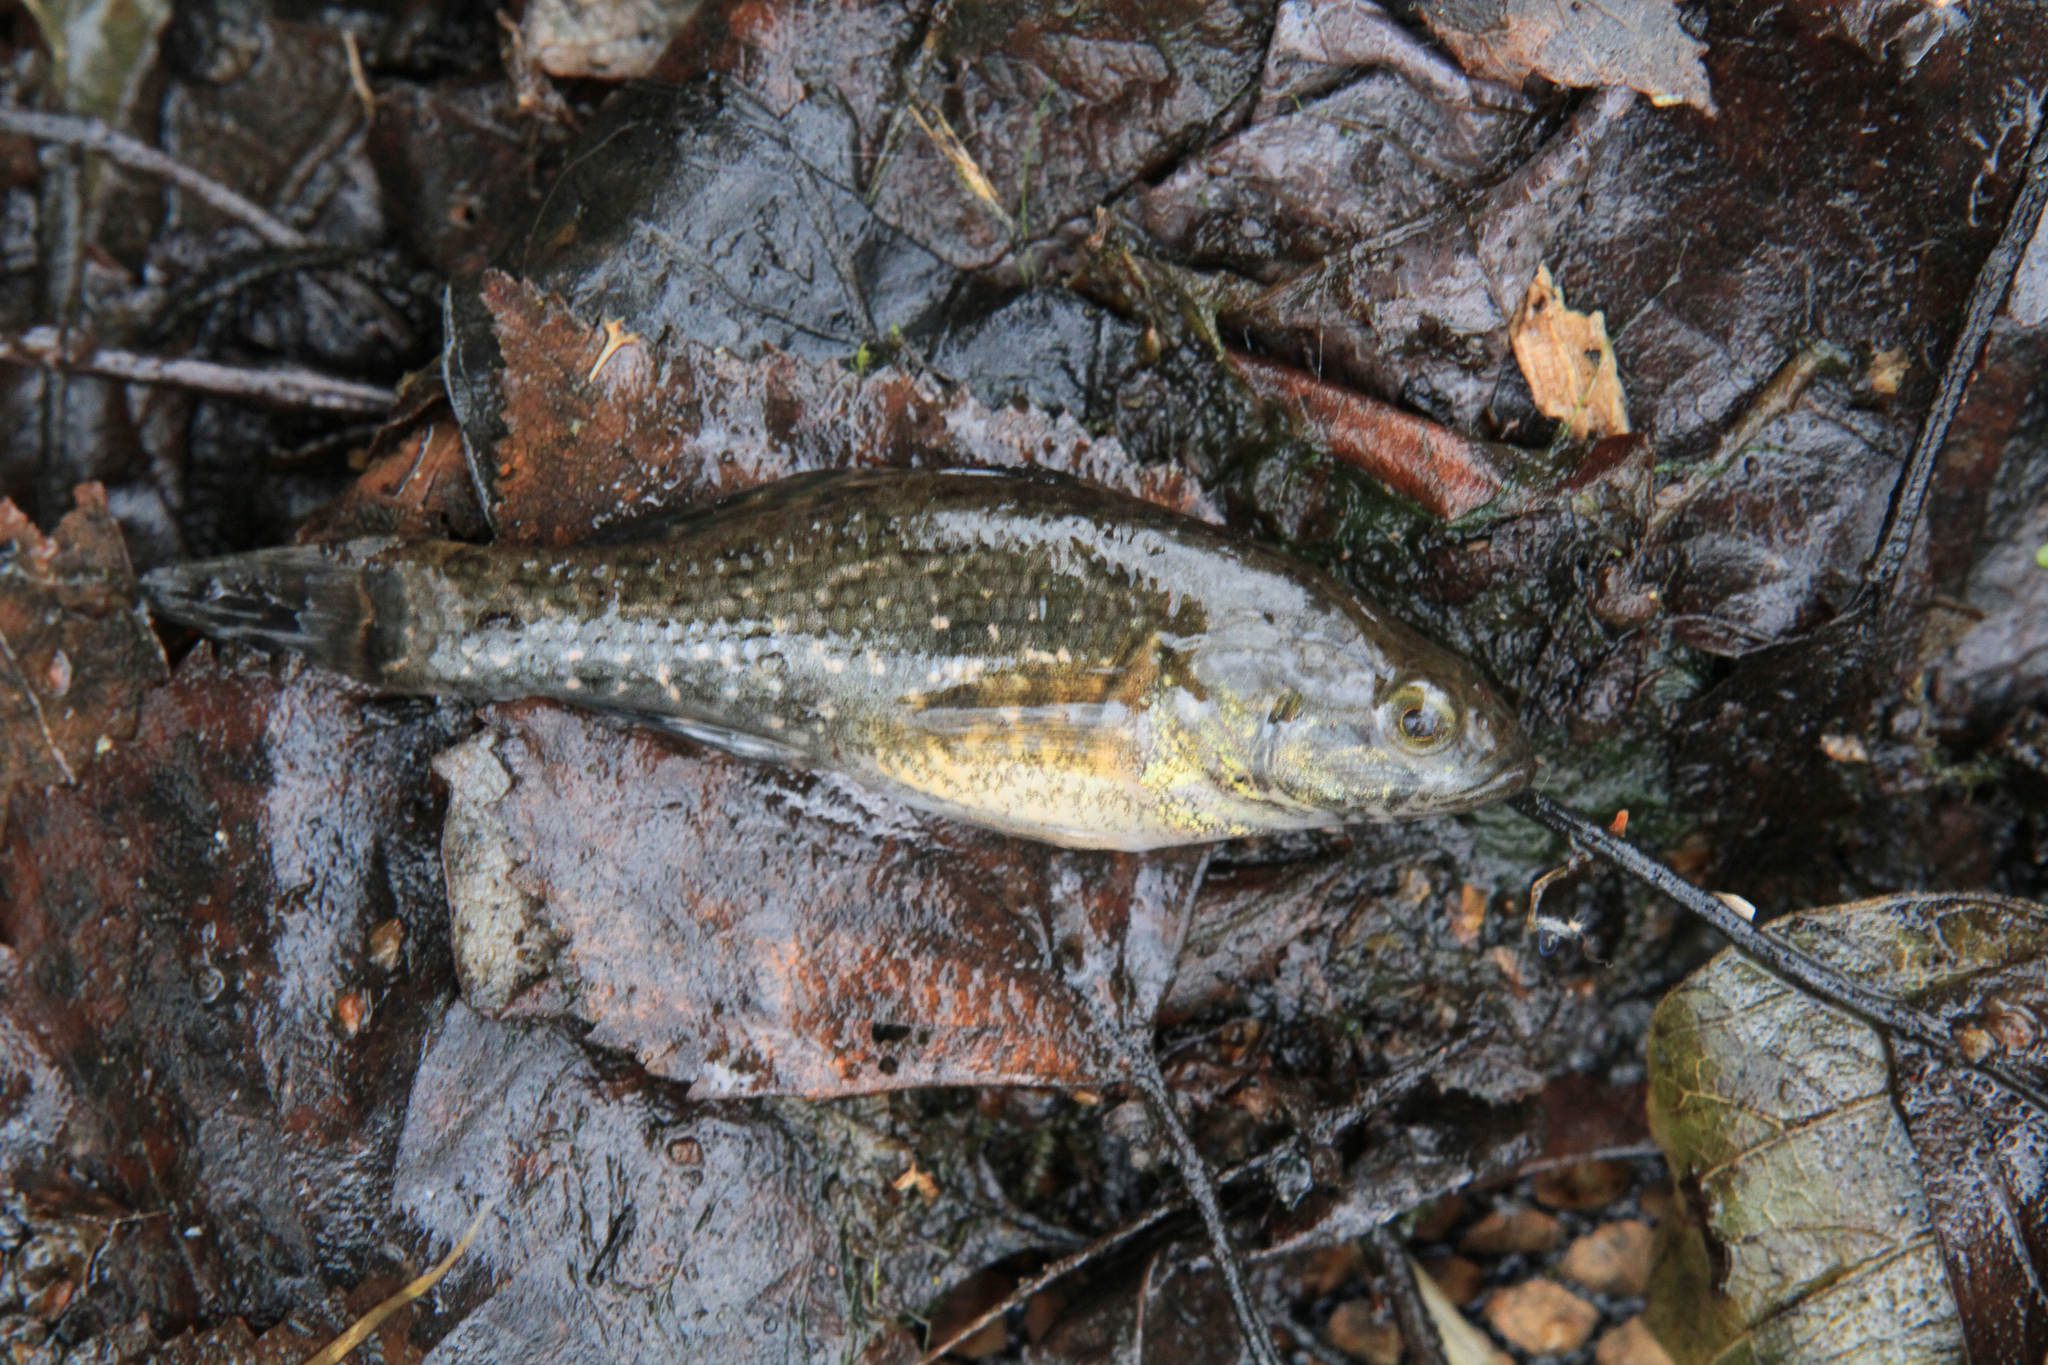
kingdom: Animalia
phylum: Chordata
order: Perciformes
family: Odontobutidae
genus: Perccottus
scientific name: Perccottus glenii
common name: Amur sleeper
